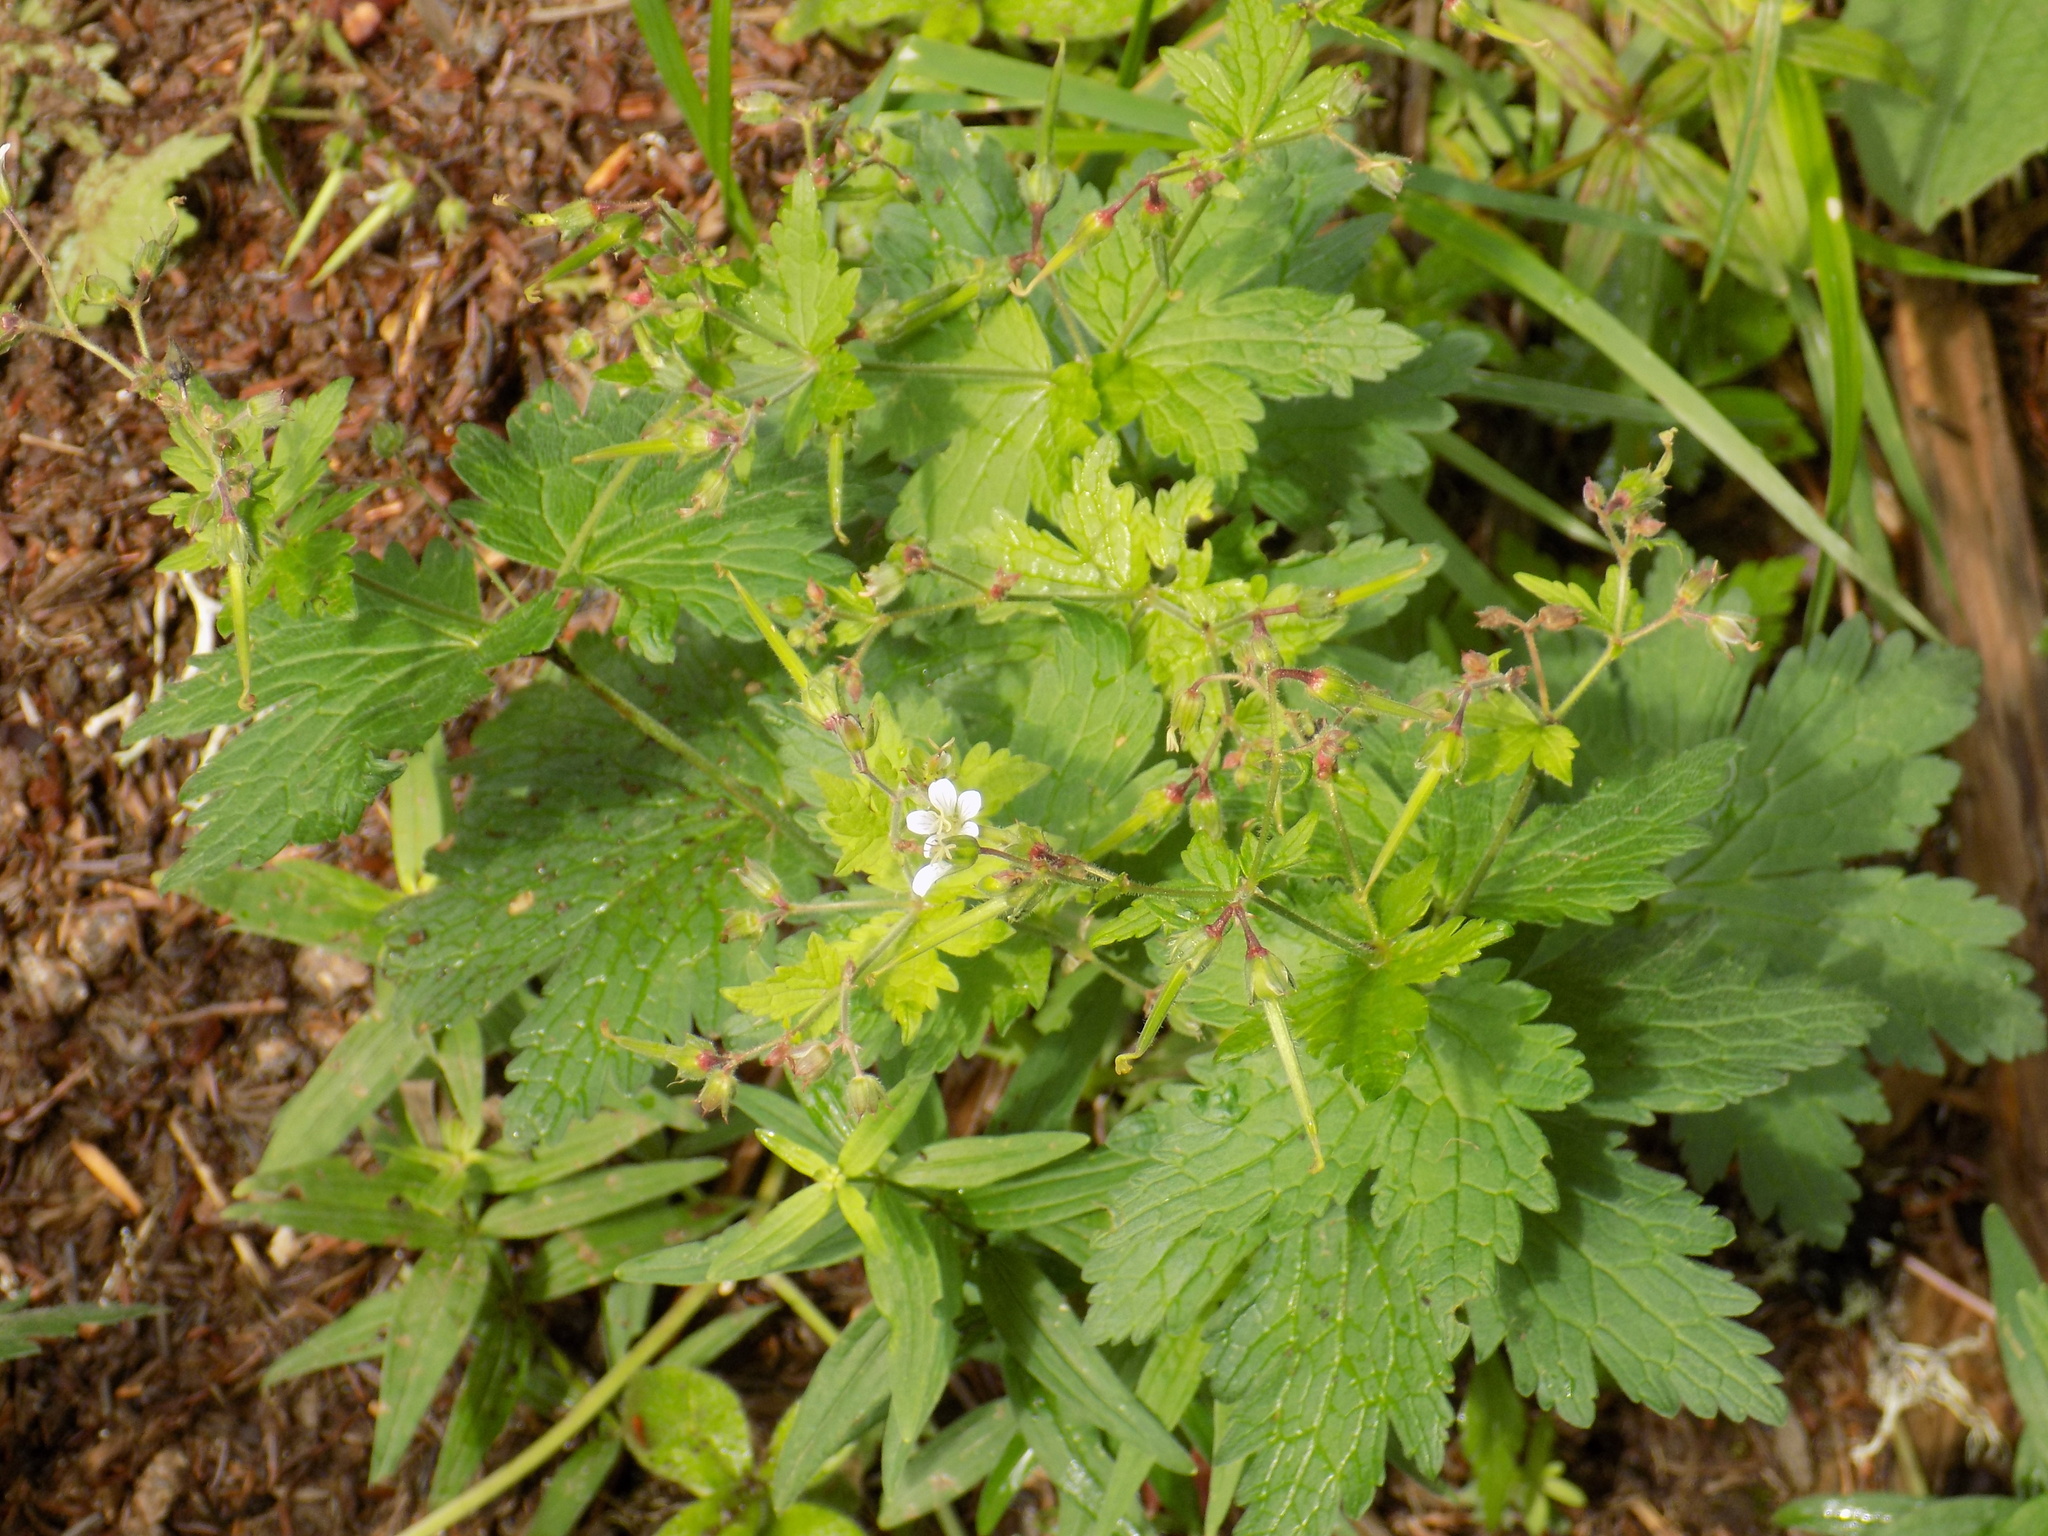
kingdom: Plantae
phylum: Tracheophyta
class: Magnoliopsida
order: Geraniales
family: Geraniaceae
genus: Geranium
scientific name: Geranium pseudosibiricum
